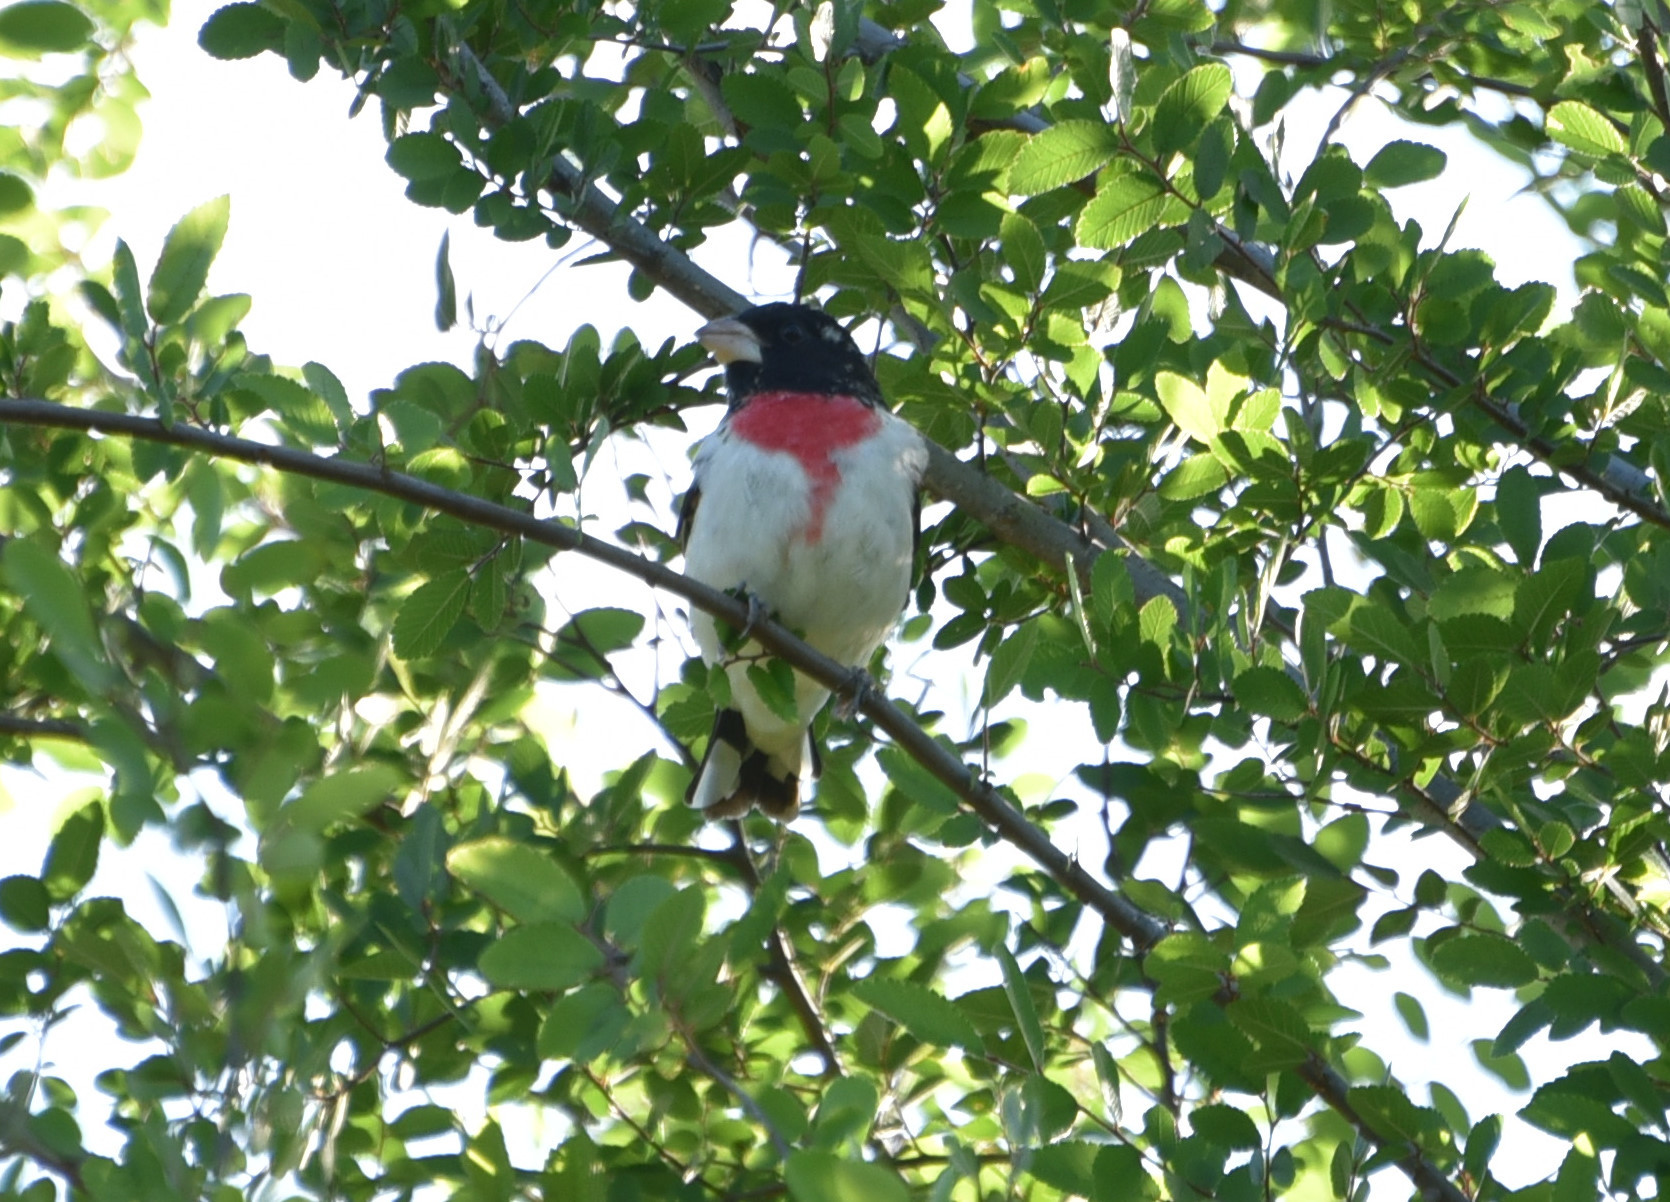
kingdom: Animalia
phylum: Chordata
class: Aves
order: Passeriformes
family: Cardinalidae
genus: Pheucticus
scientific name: Pheucticus ludovicianus
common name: Rose-breasted grosbeak
